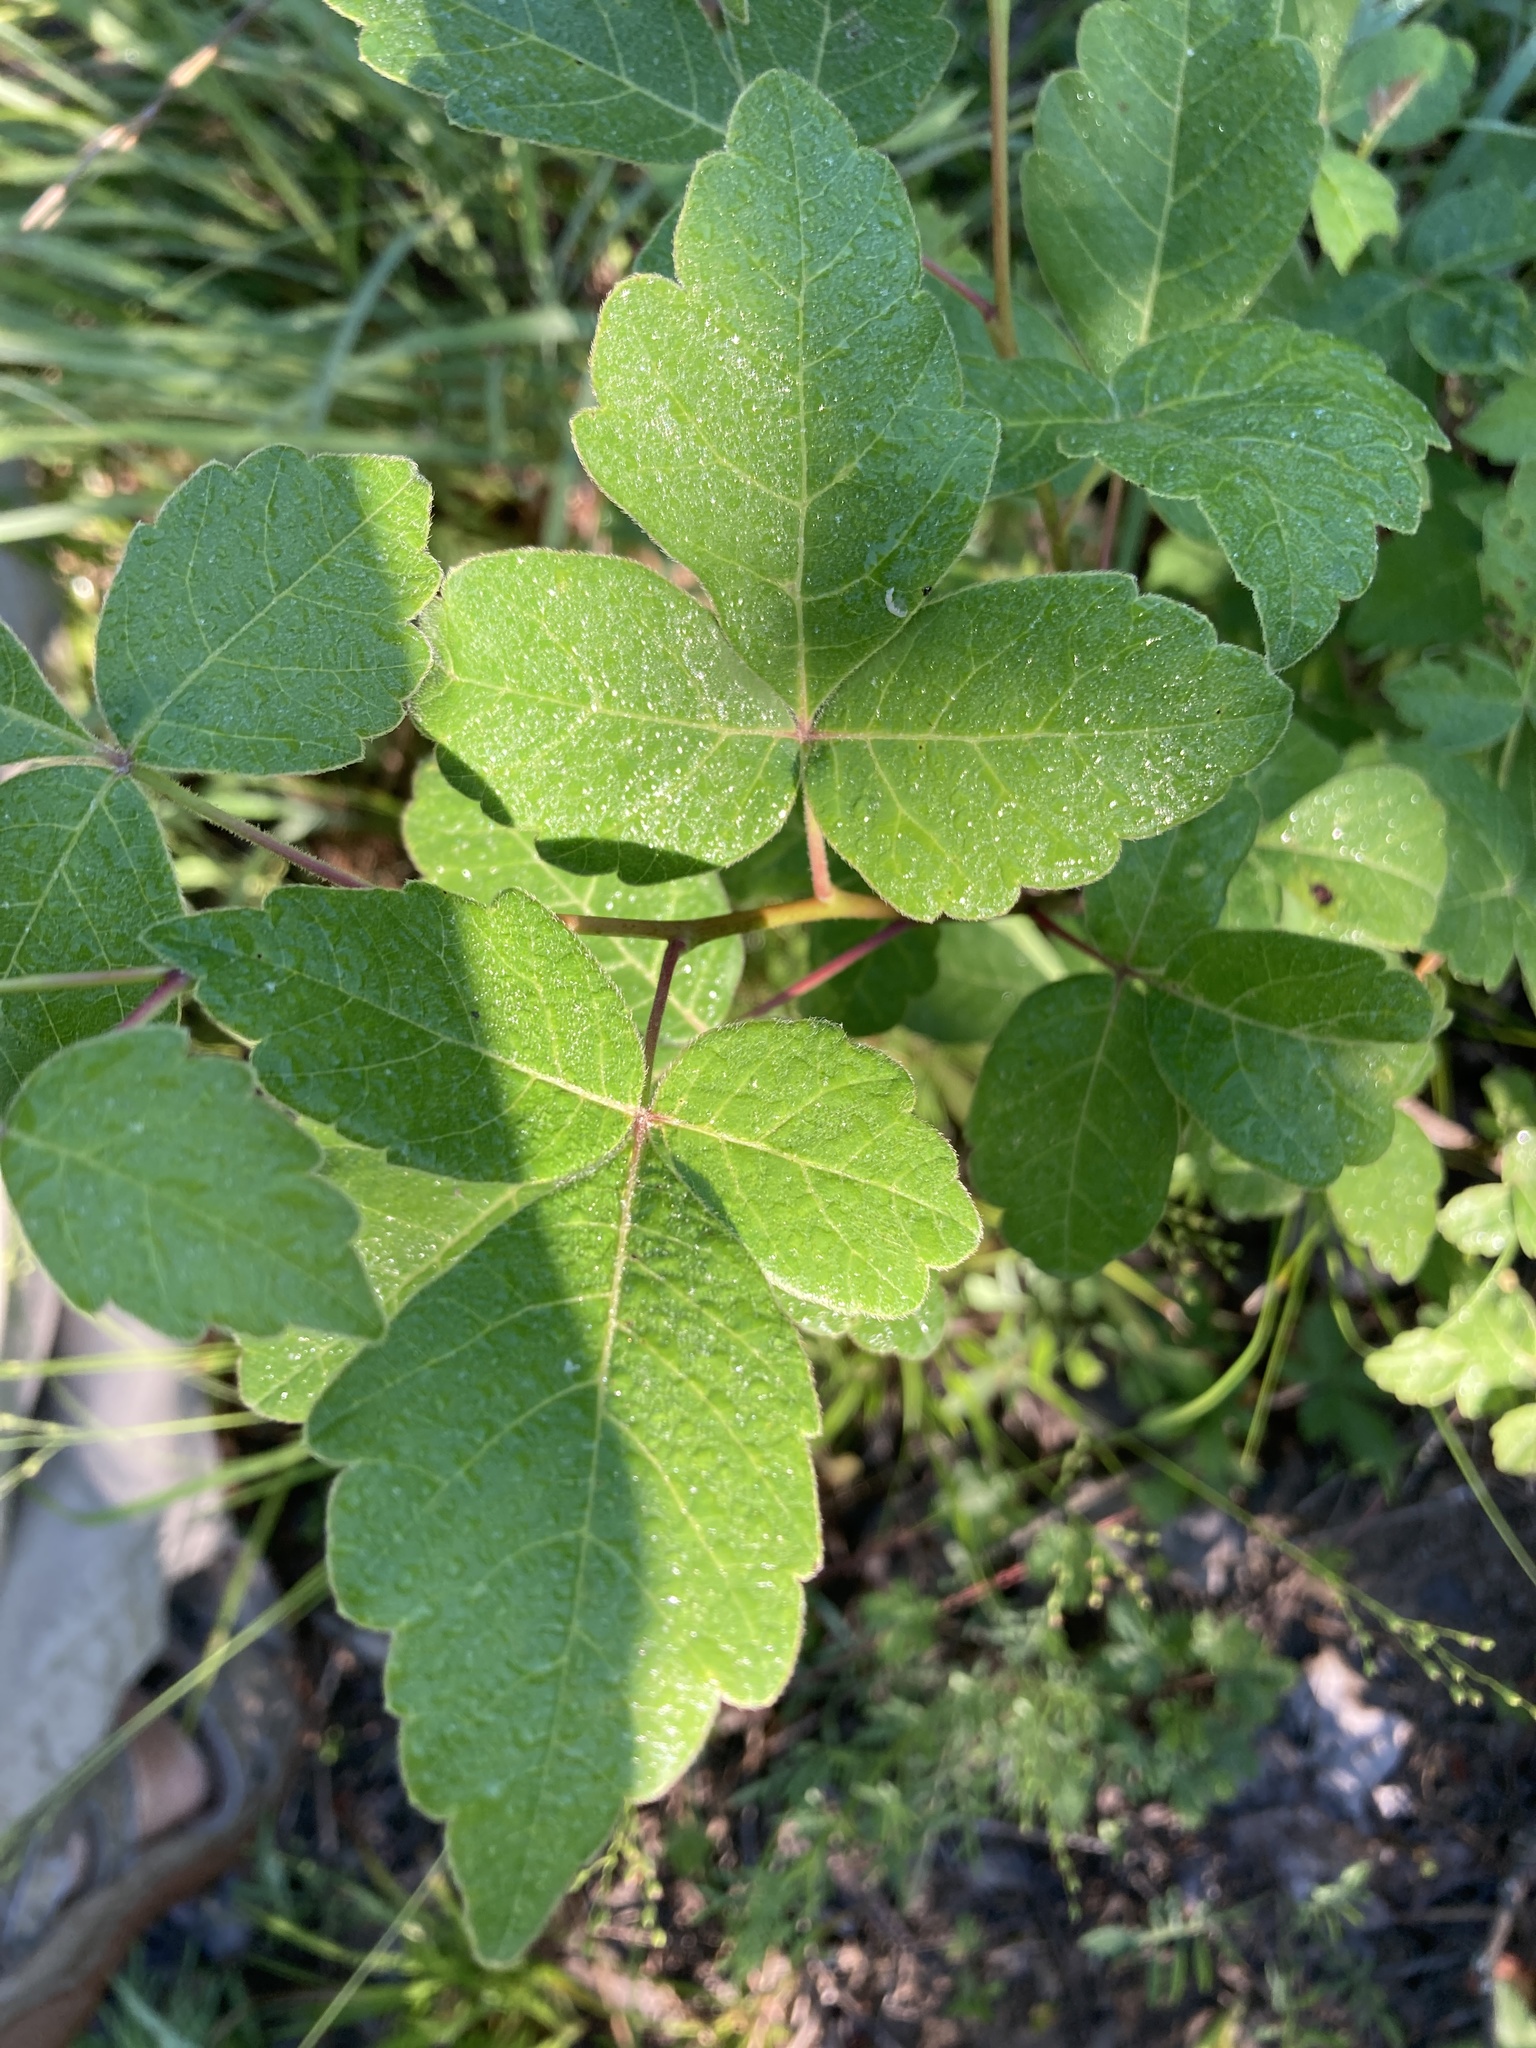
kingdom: Plantae
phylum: Tracheophyta
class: Magnoliopsida
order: Sapindales
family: Anacardiaceae
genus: Rhus
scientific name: Rhus aromatica
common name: Aromatic sumac
